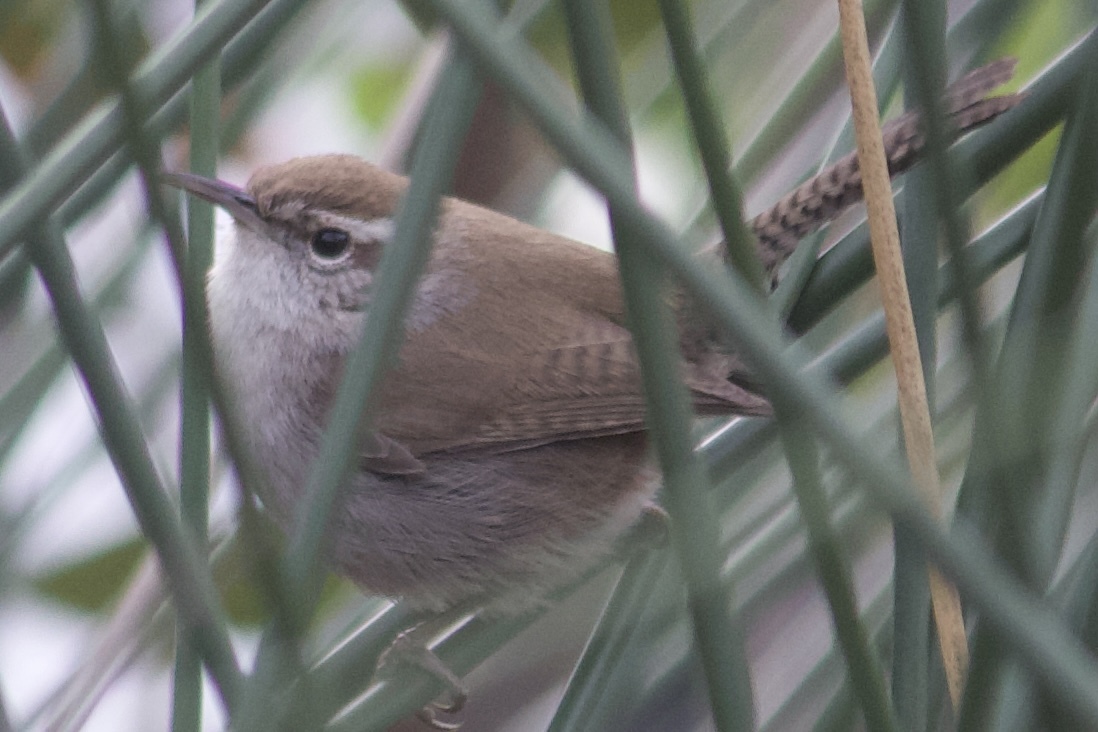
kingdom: Animalia
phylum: Chordata
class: Aves
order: Passeriformes
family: Troglodytidae
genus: Thryomanes
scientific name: Thryomanes bewickii
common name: Bewick's wren
